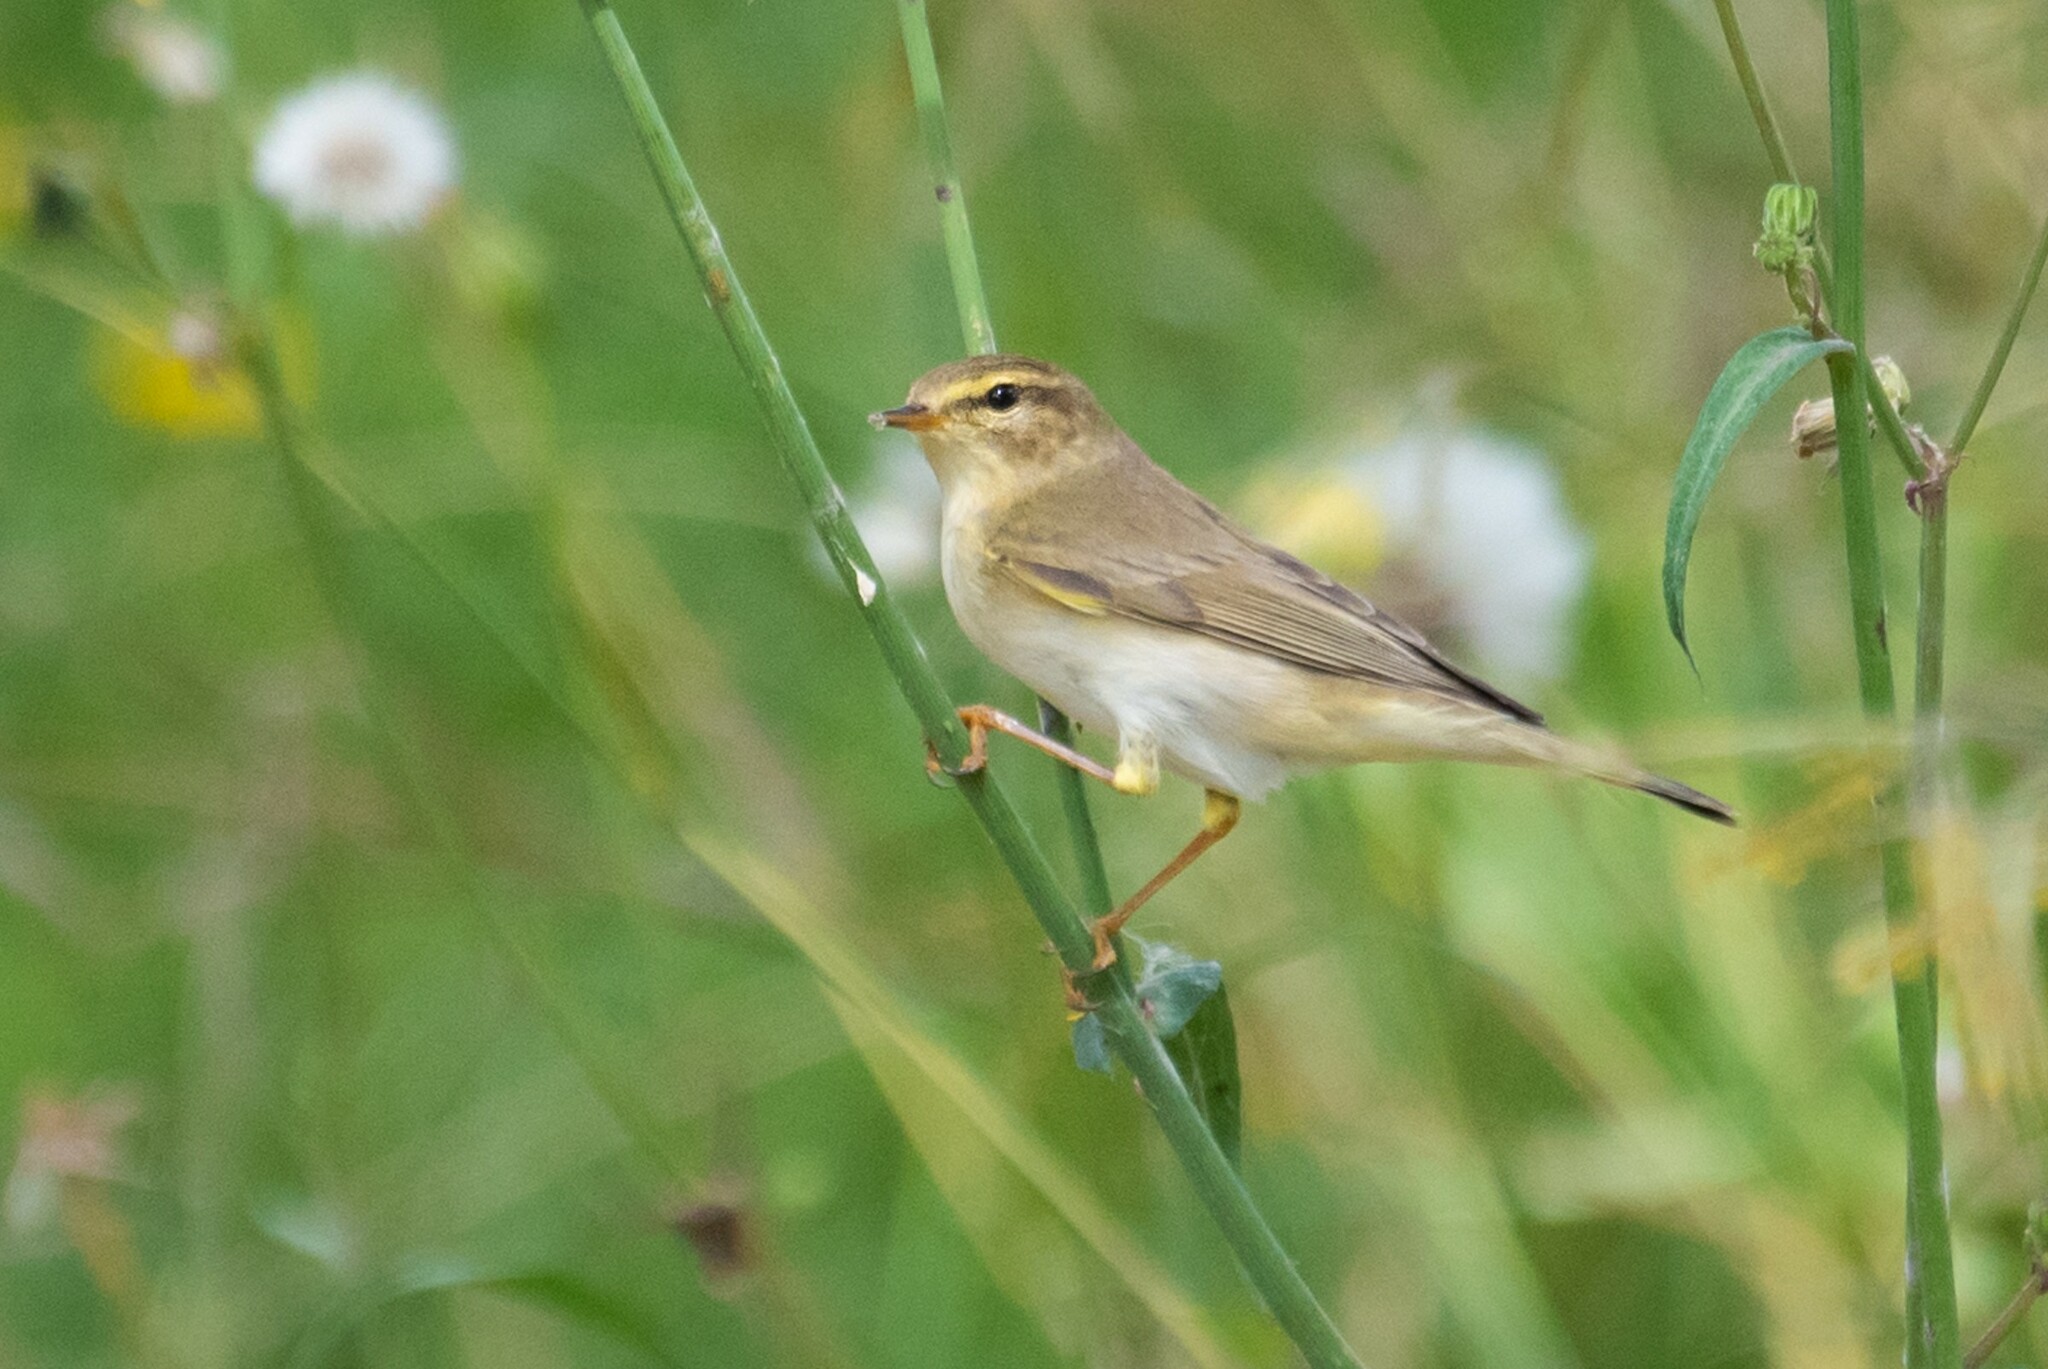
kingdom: Animalia
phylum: Chordata
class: Aves
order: Passeriformes
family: Phylloscopidae
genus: Phylloscopus
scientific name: Phylloscopus trochilus
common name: Willow warbler
